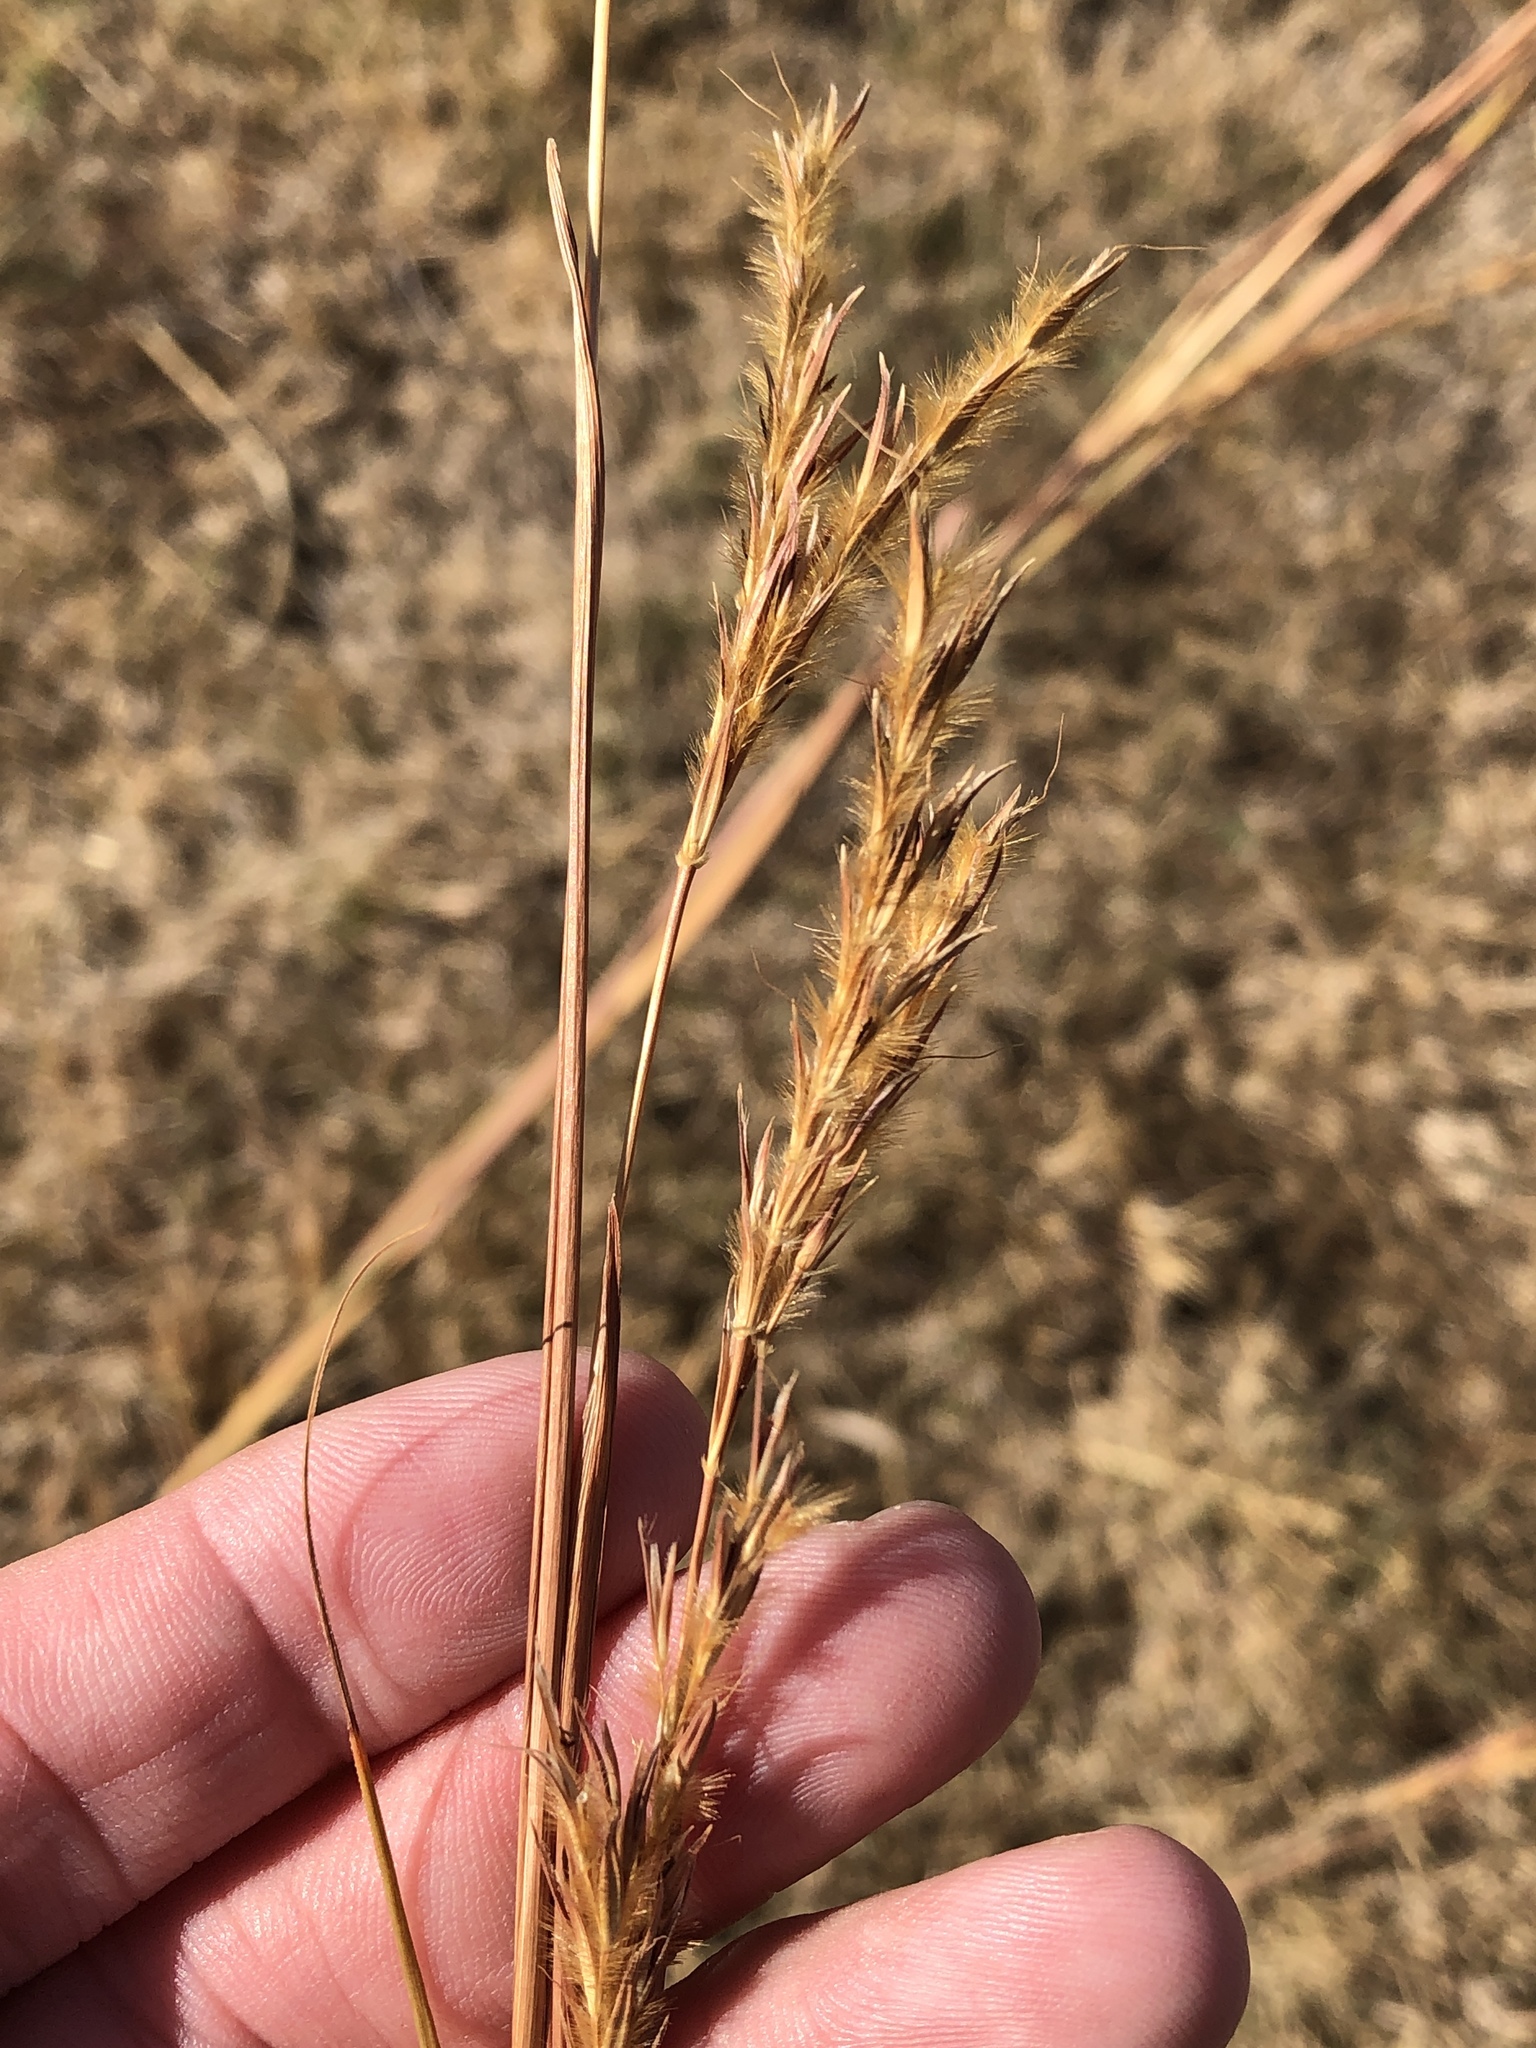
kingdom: Plantae
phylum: Tracheophyta
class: Liliopsida
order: Poales
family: Poaceae
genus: Andropogon
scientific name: Andropogon gerardi
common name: Big bluestem
